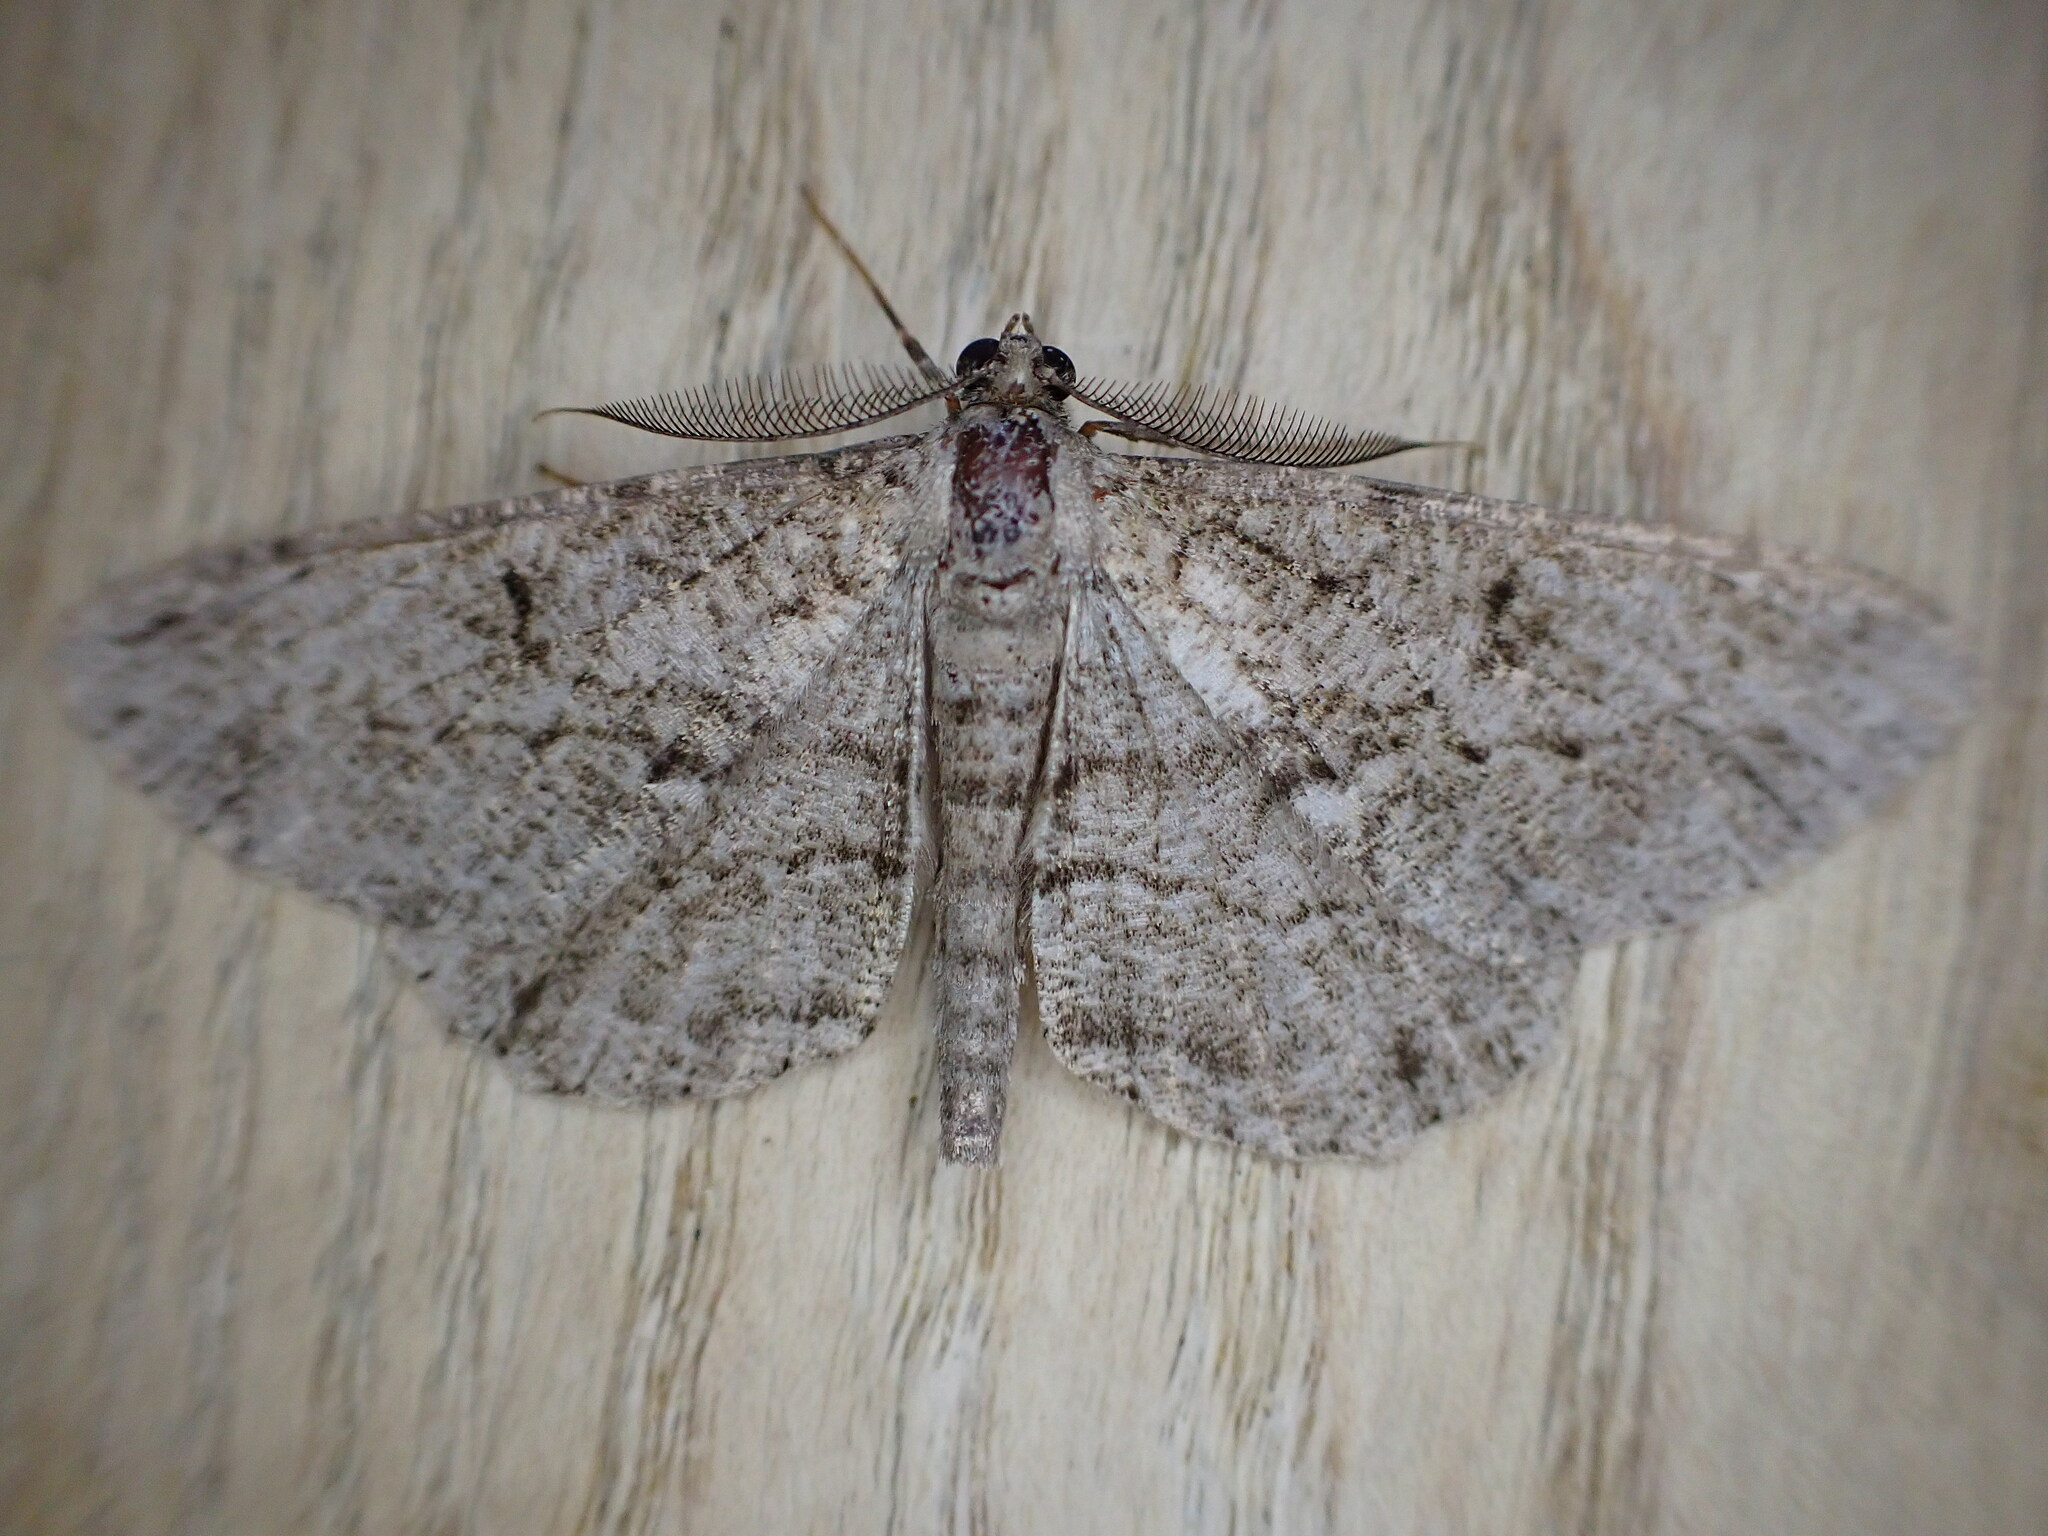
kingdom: Animalia
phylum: Arthropoda
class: Insecta
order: Lepidoptera
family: Geometridae
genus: Peribatodes
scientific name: Peribatodes rhomboidaria
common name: Willow beauty
